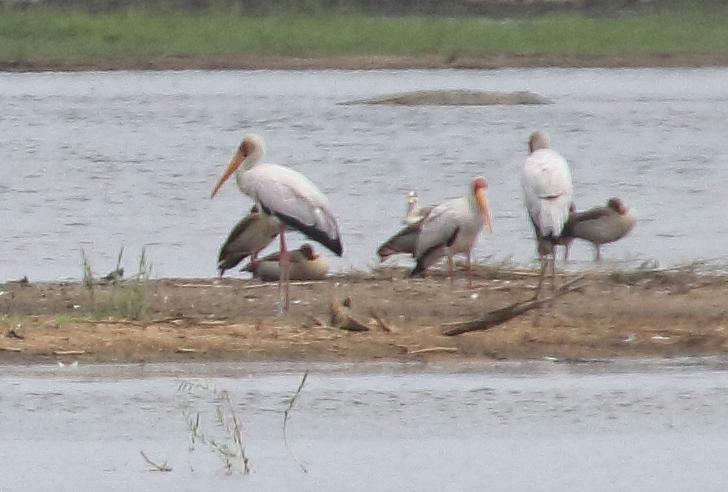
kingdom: Animalia
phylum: Chordata
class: Aves
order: Ciconiiformes
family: Ciconiidae
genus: Mycteria
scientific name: Mycteria ibis
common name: Yellow-billed stork
